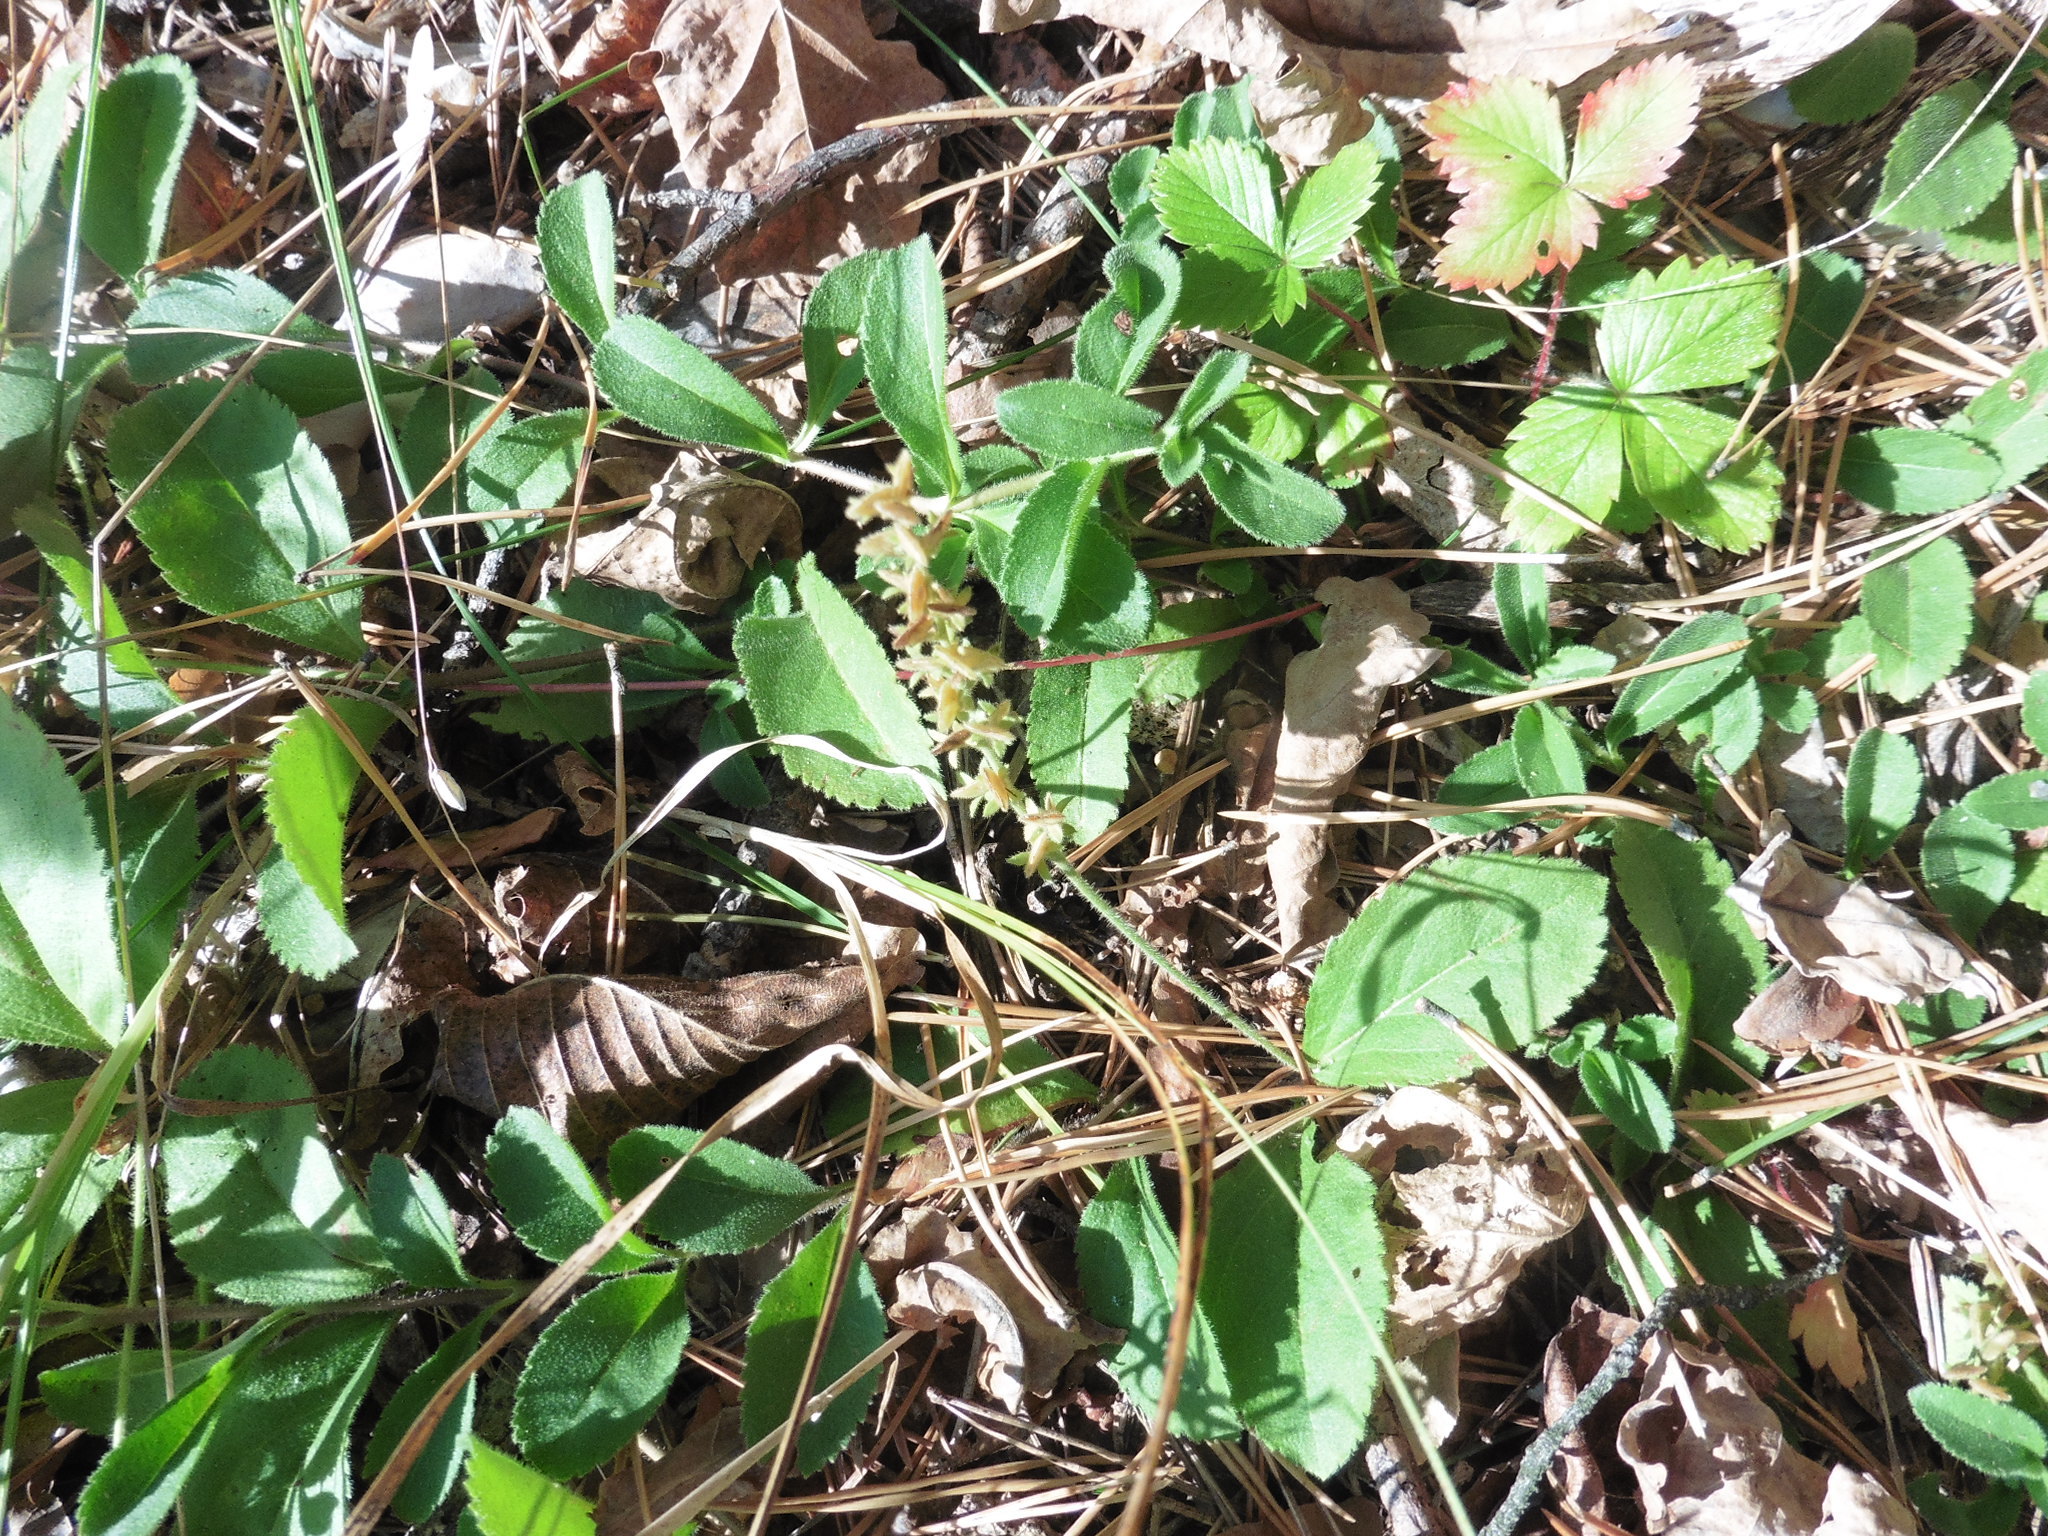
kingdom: Plantae
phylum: Tracheophyta
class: Magnoliopsida
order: Lamiales
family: Plantaginaceae
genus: Veronica
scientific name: Veronica officinalis
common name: Common speedwell
